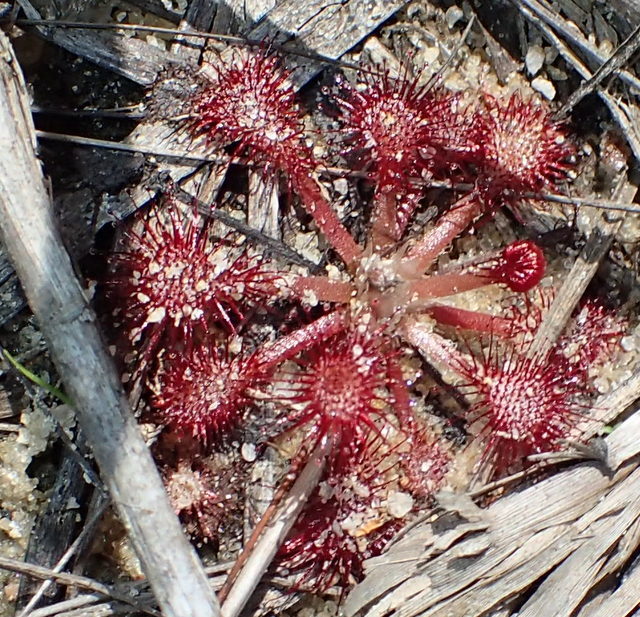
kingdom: Plantae
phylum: Tracheophyta
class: Magnoliopsida
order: Caryophyllales
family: Droseraceae
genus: Drosera
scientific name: Drosera capillaris
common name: Pink sundew
